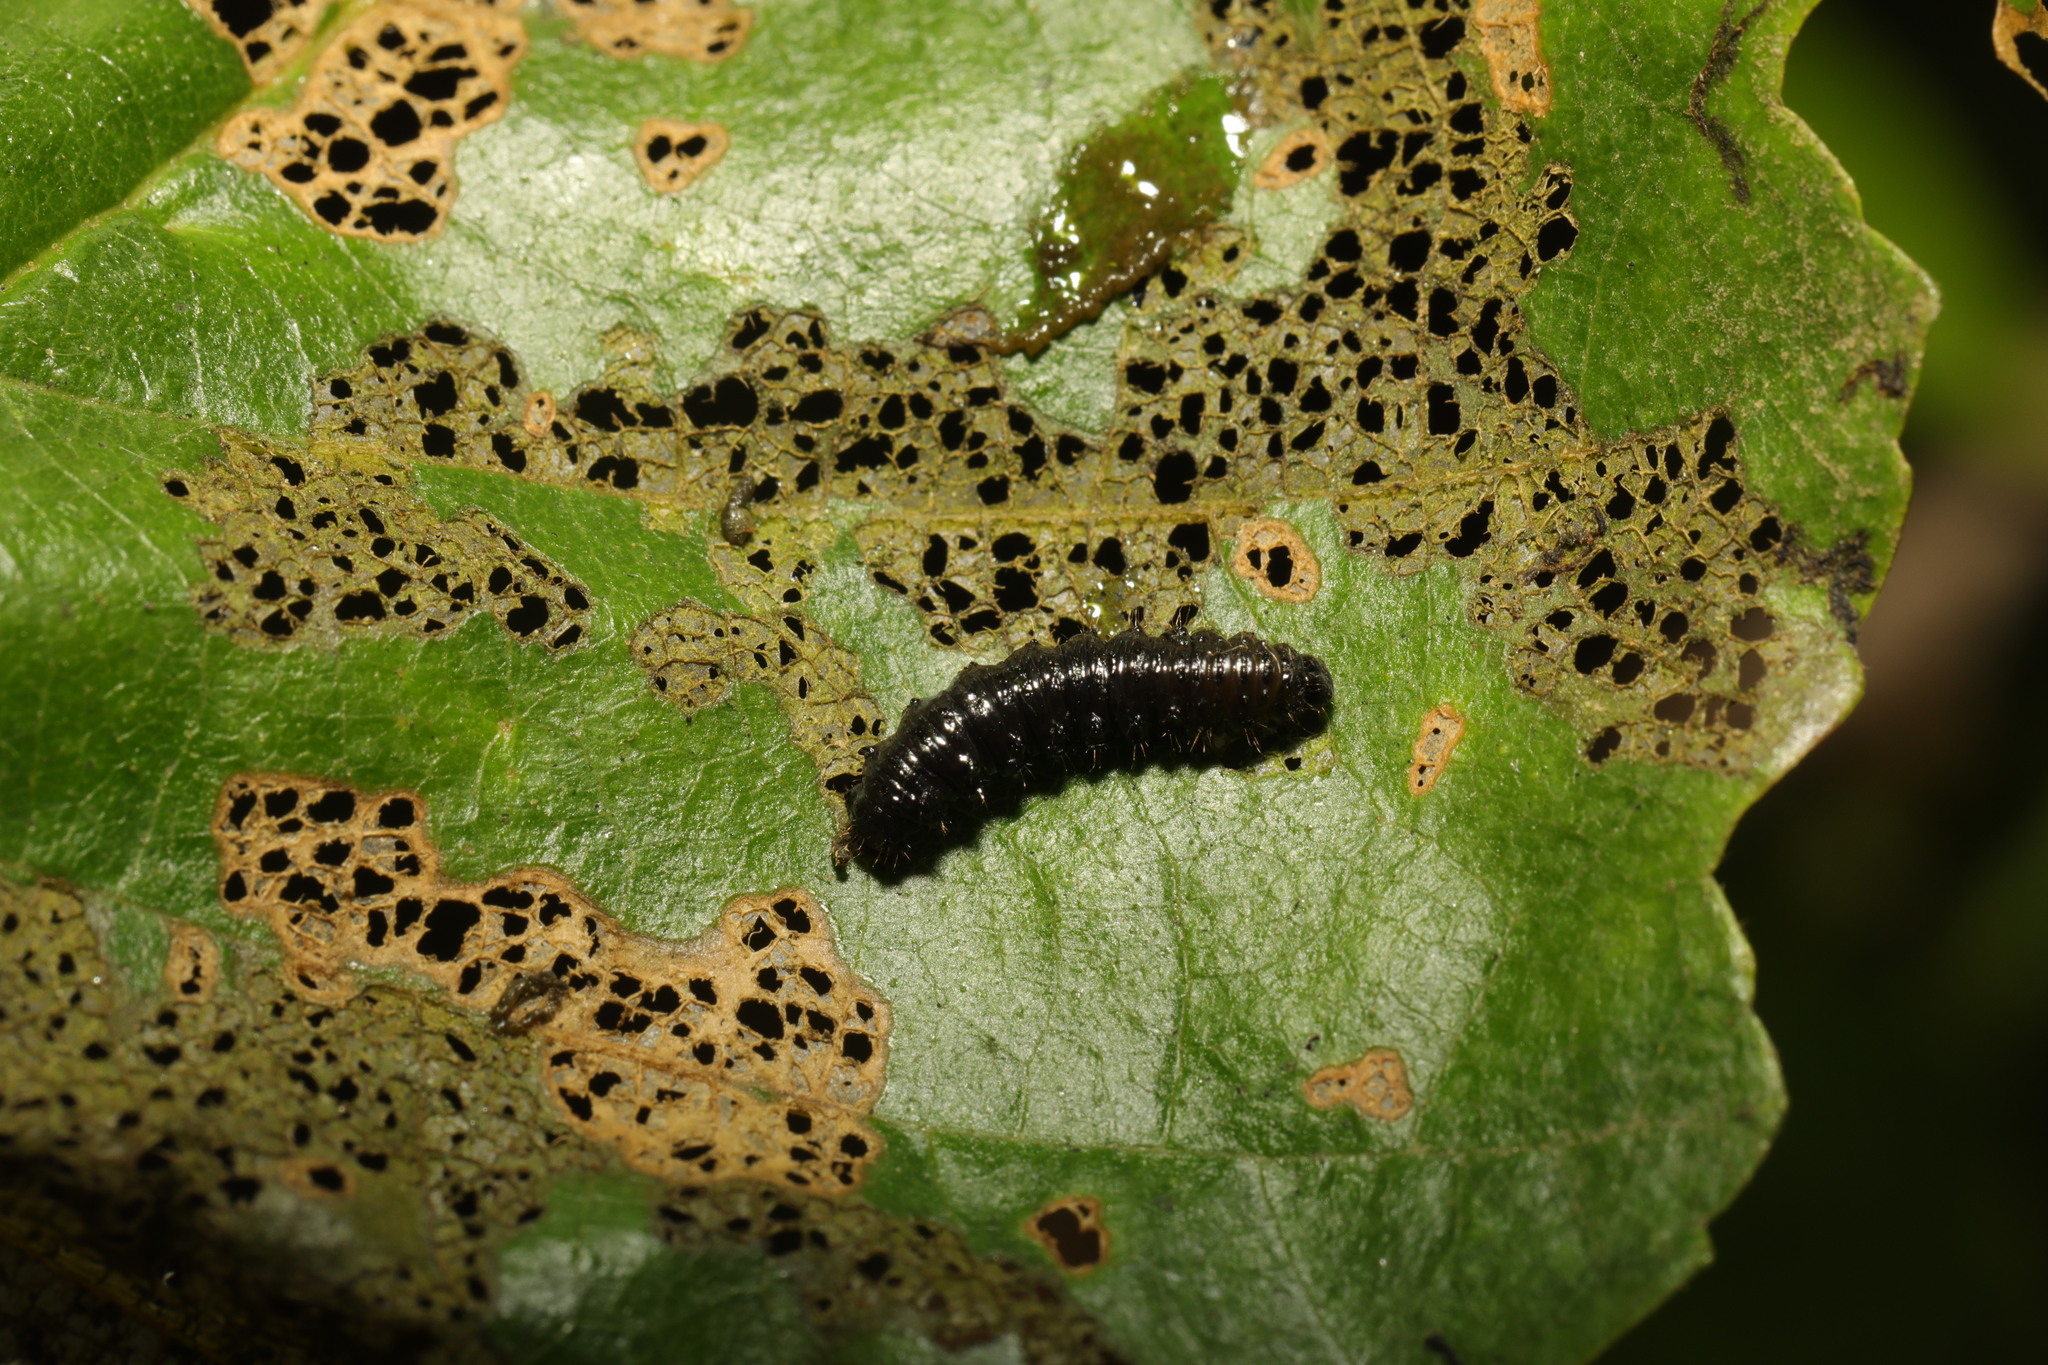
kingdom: Animalia
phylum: Arthropoda
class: Insecta
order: Coleoptera
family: Chrysomelidae
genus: Agelastica
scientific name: Agelastica alni
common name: Alder leaf beetle
